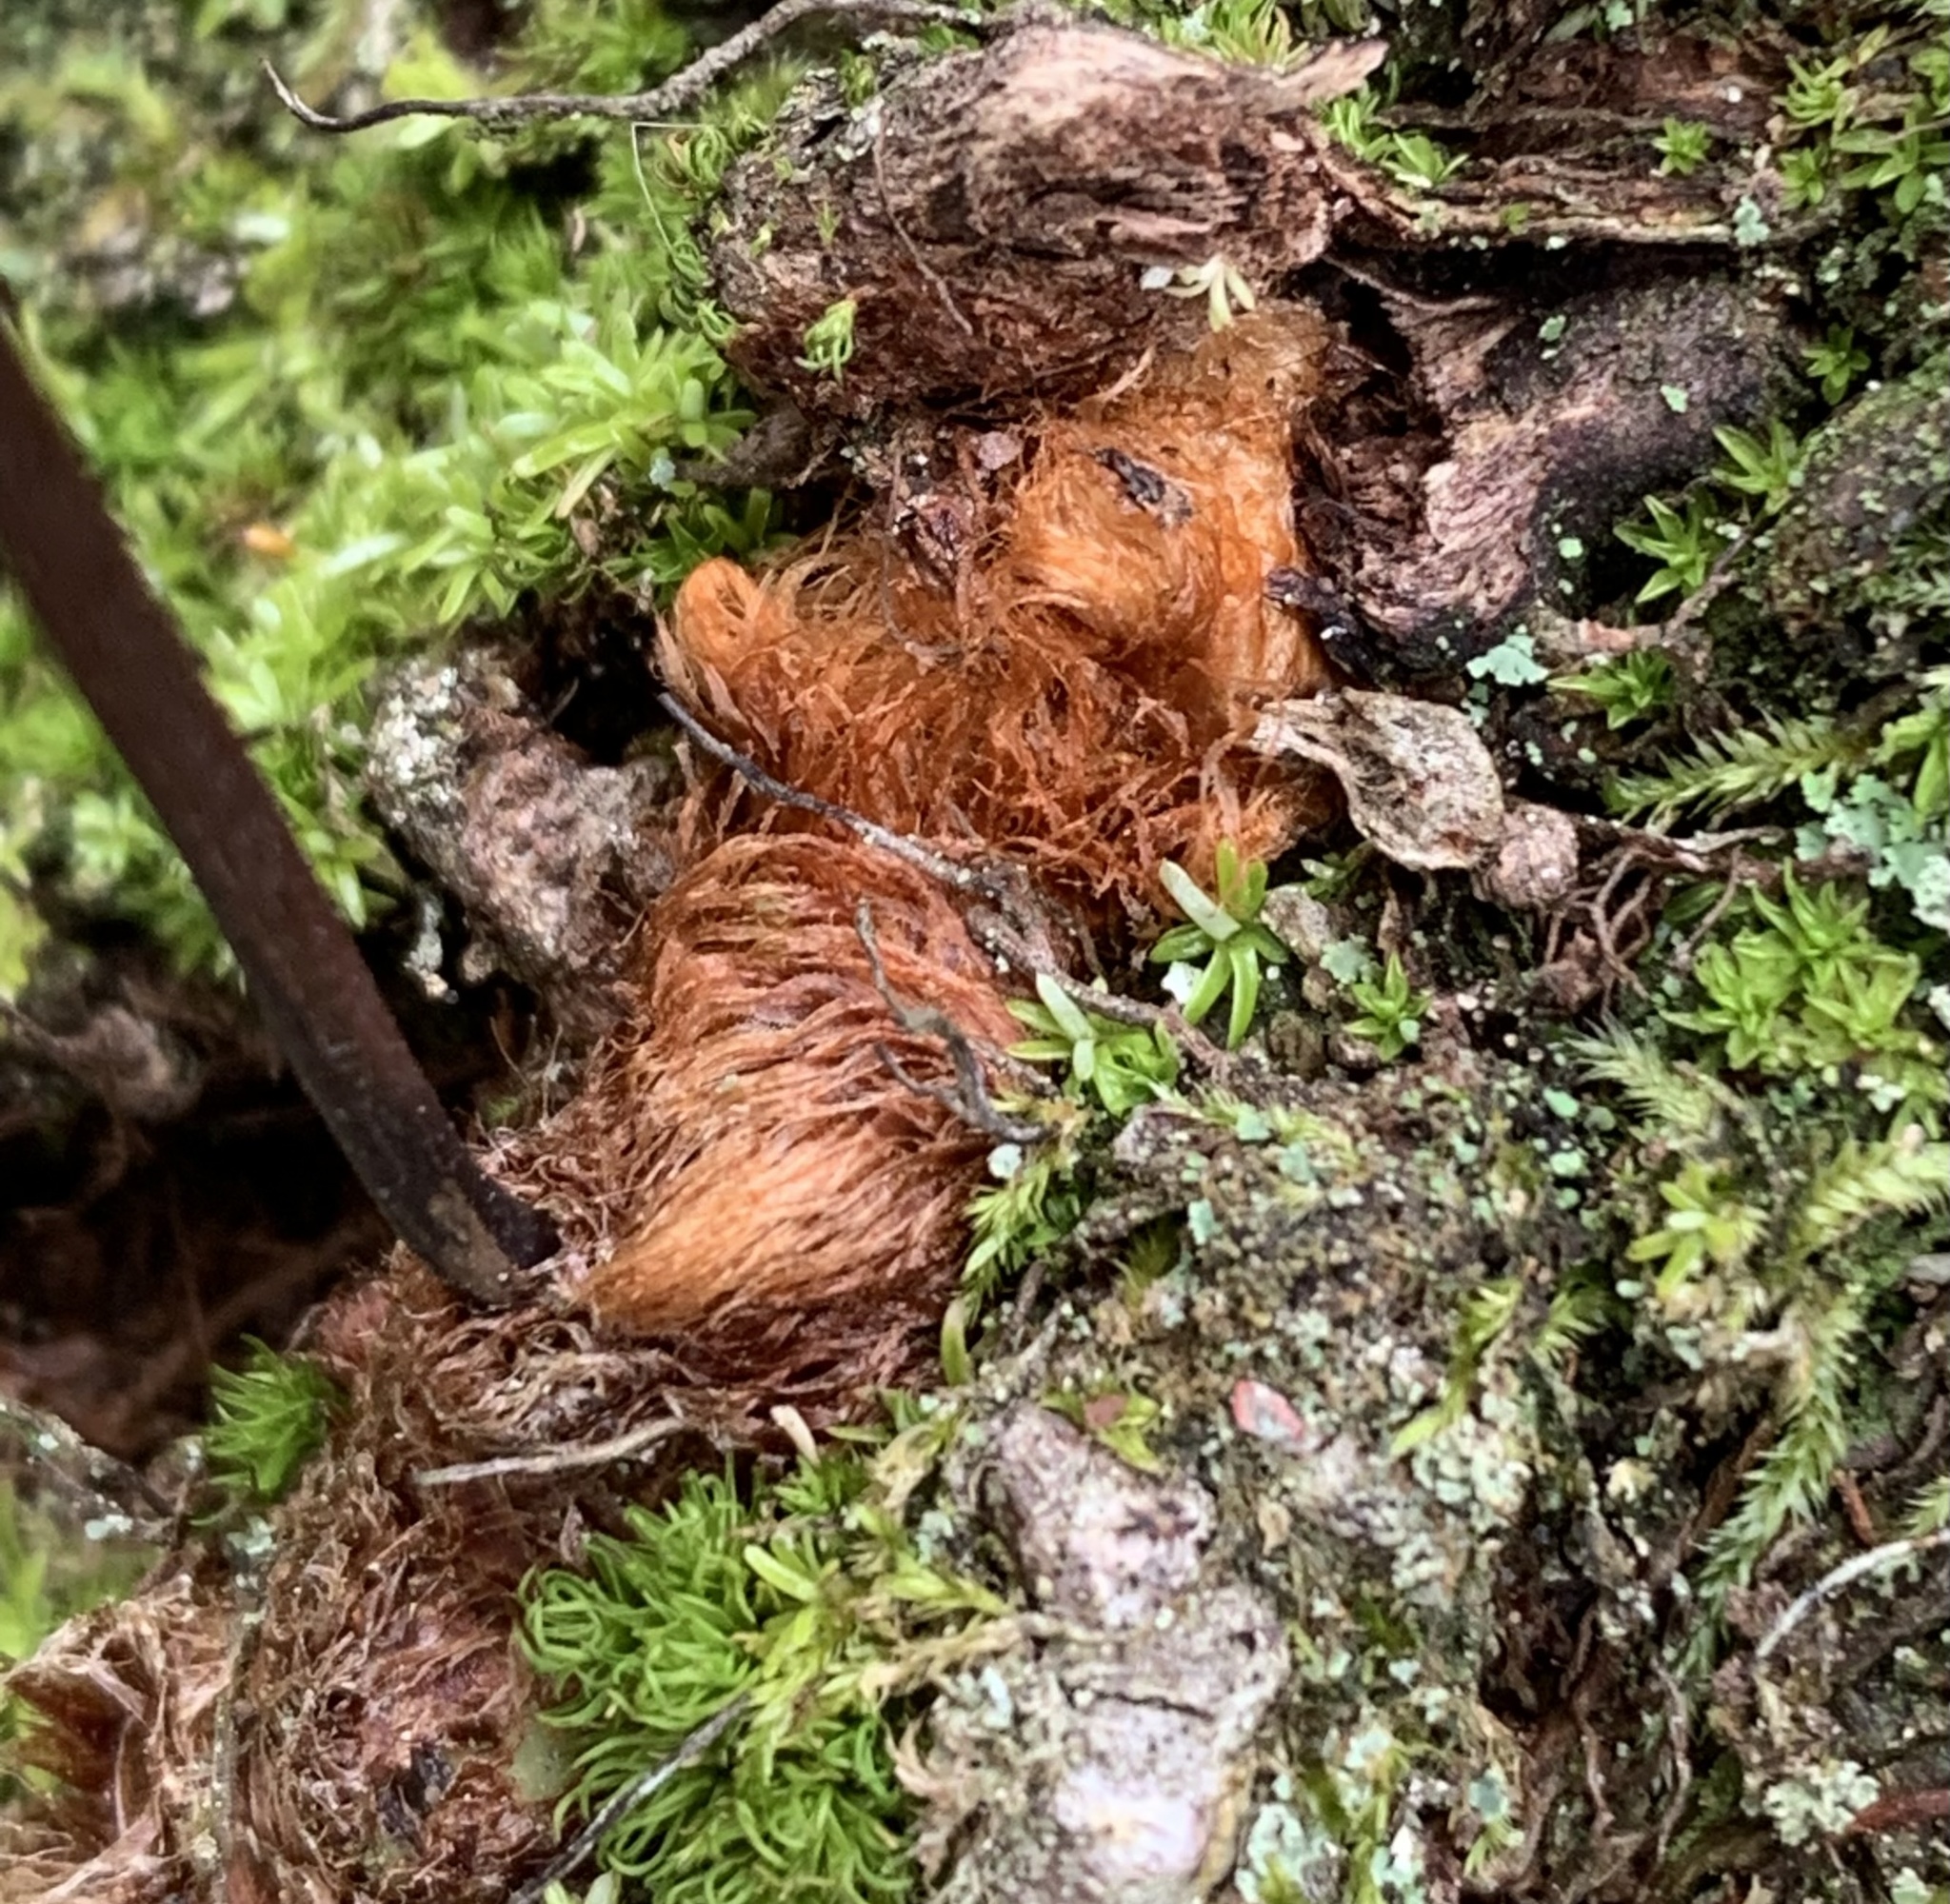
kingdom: Plantae
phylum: Tracheophyta
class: Polypodiopsida
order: Polypodiales
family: Polypodiaceae
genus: Phlebodium
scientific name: Phlebodium pseudoaureum
